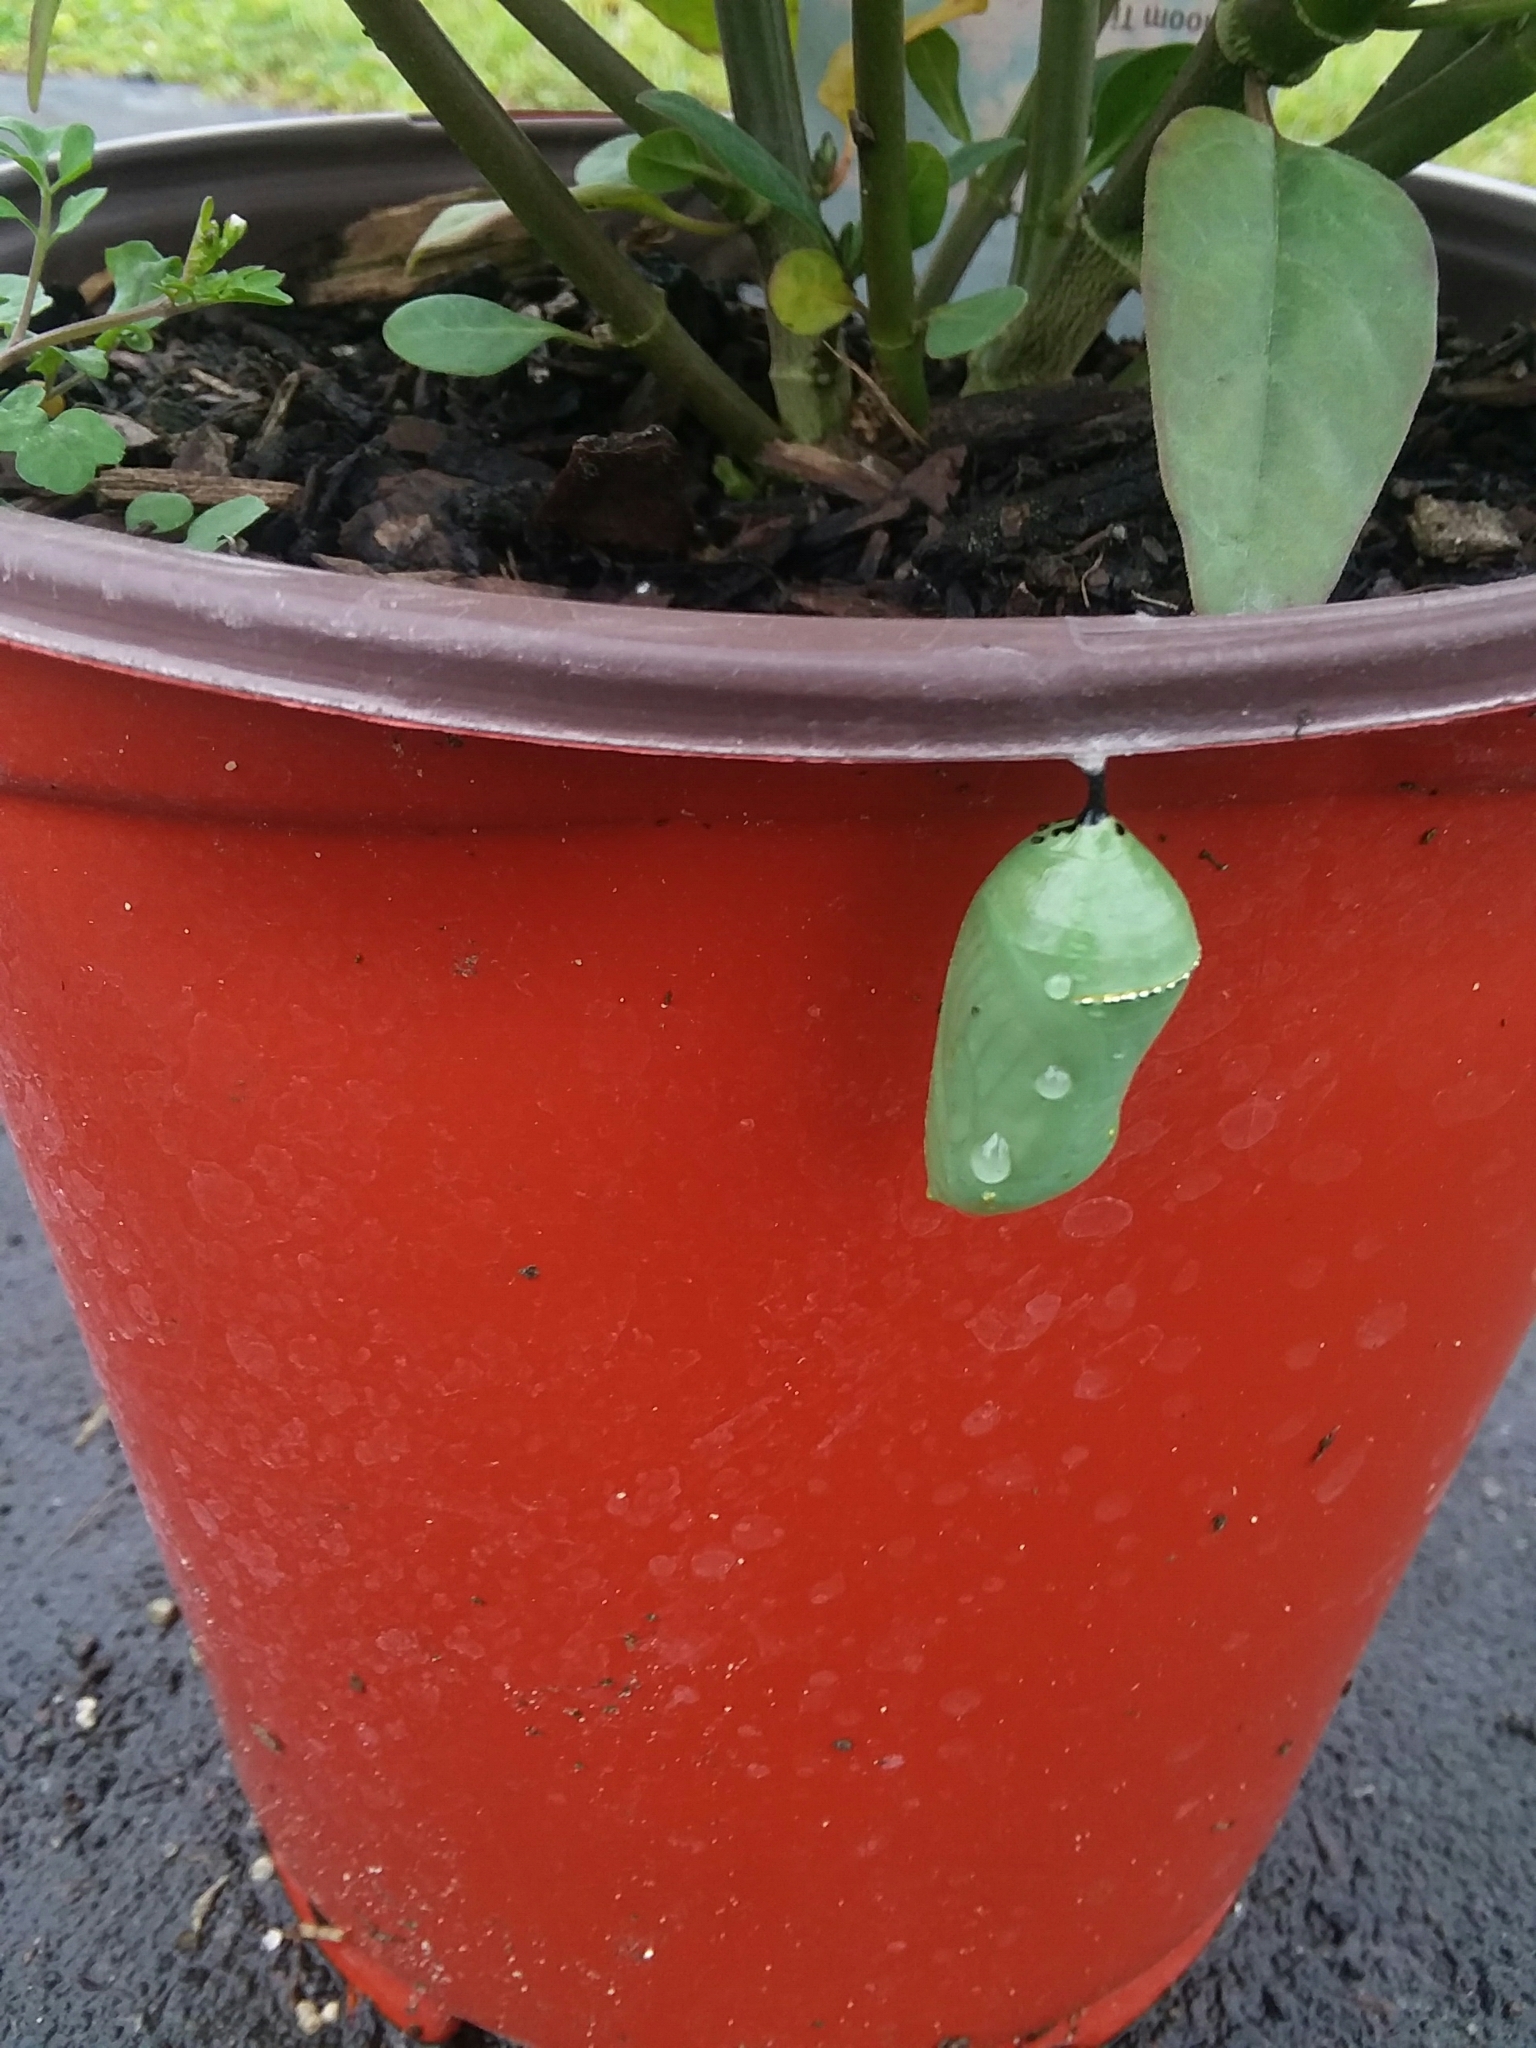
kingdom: Animalia
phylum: Arthropoda
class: Insecta
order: Lepidoptera
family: Nymphalidae
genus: Danaus
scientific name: Danaus plexippus
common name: Monarch
